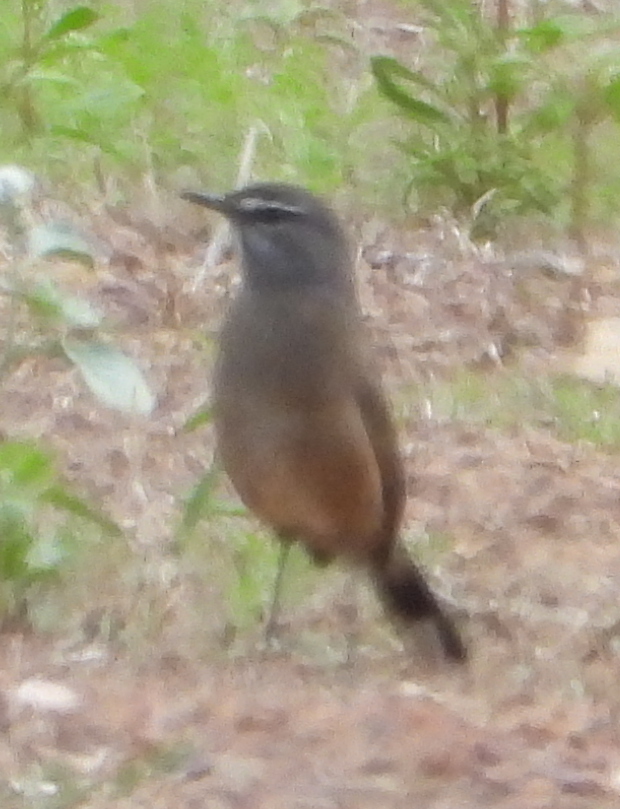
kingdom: Animalia
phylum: Chordata
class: Aves
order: Passeriformes
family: Muscicapidae
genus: Erythropygia
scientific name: Erythropygia coryphoeus
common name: Karoo scrub robin
